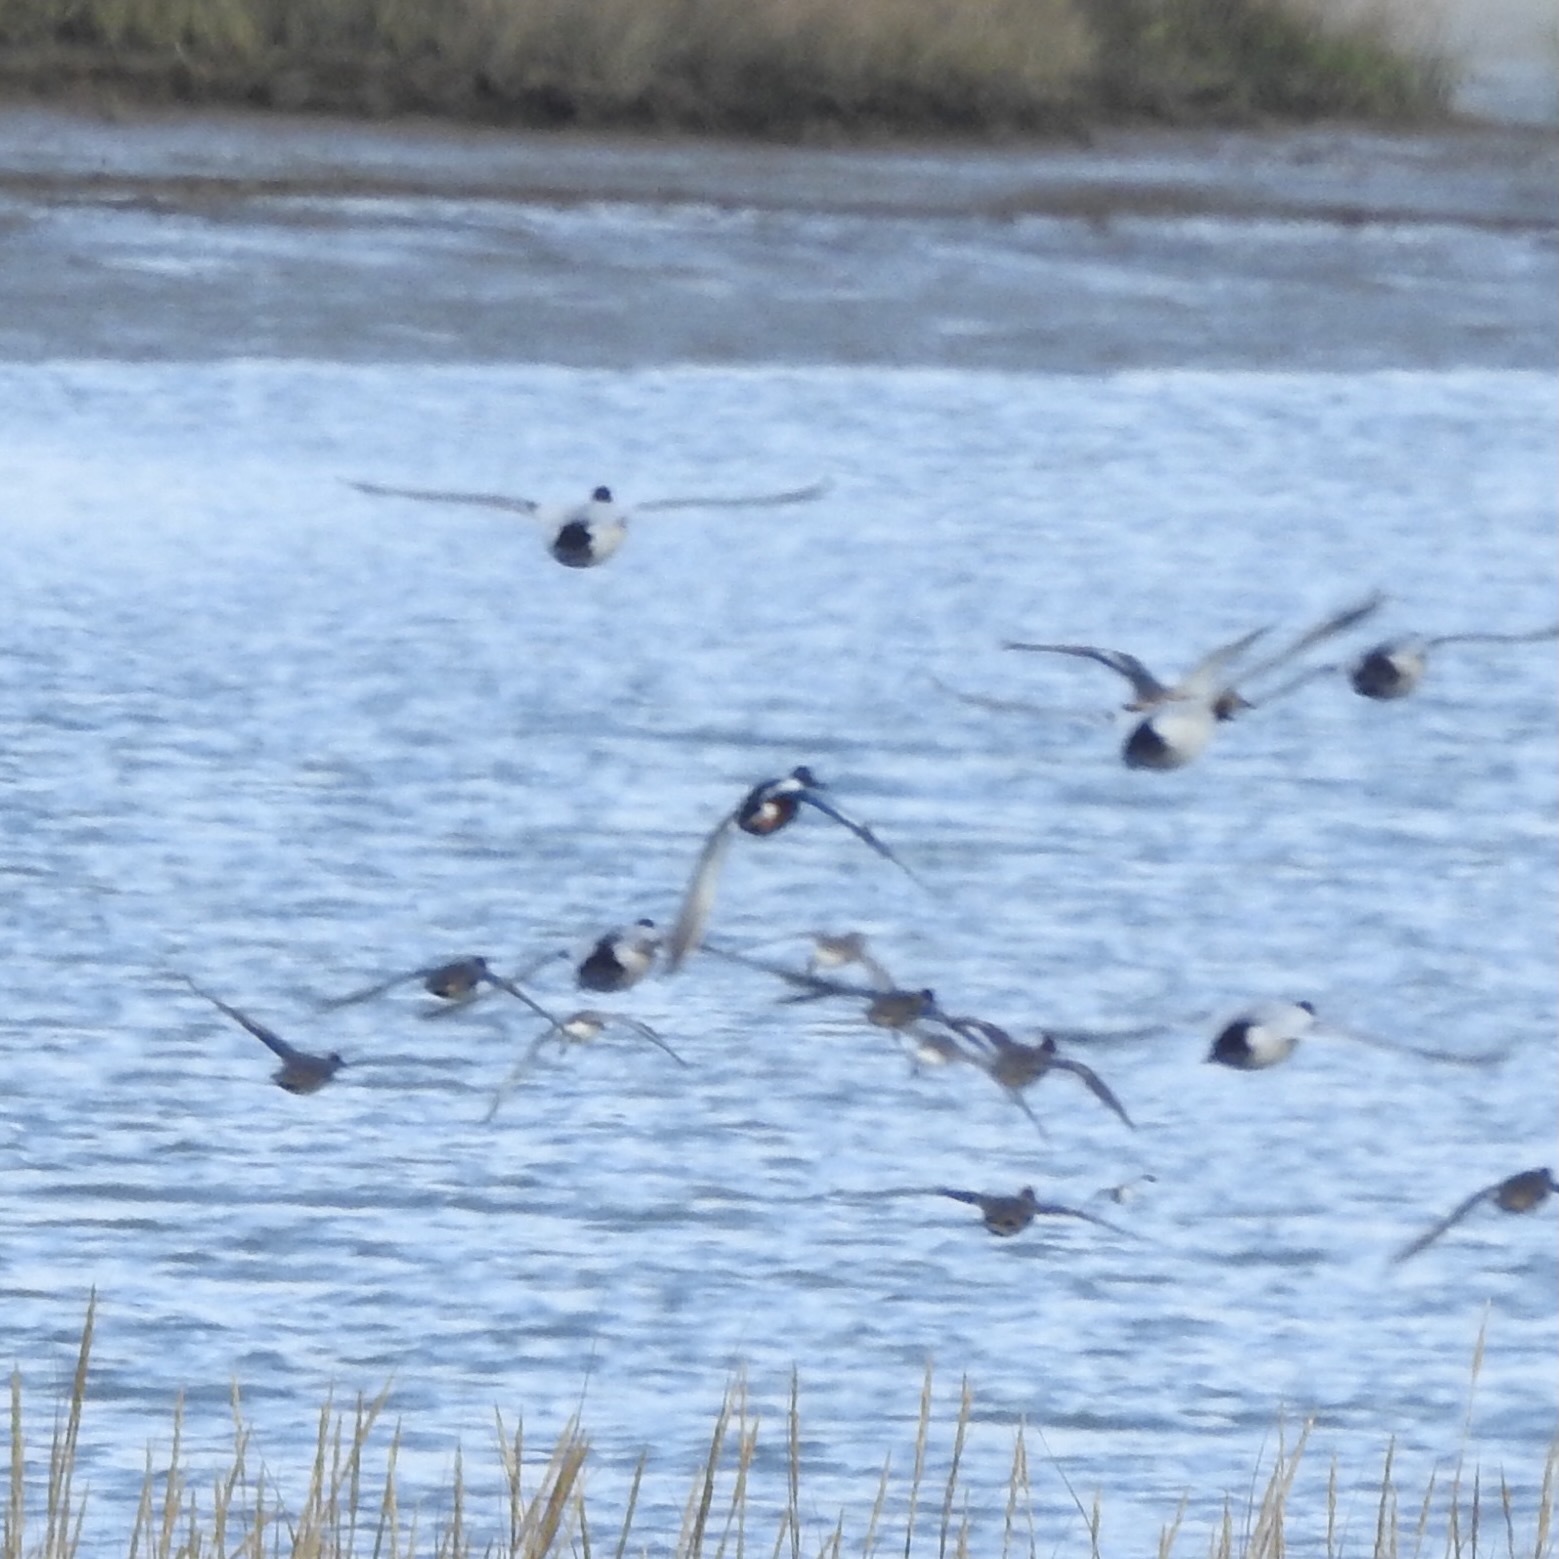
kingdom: Animalia
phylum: Chordata
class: Aves
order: Anseriformes
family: Anatidae
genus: Spatula
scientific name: Spatula clypeata
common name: Northern shoveler
